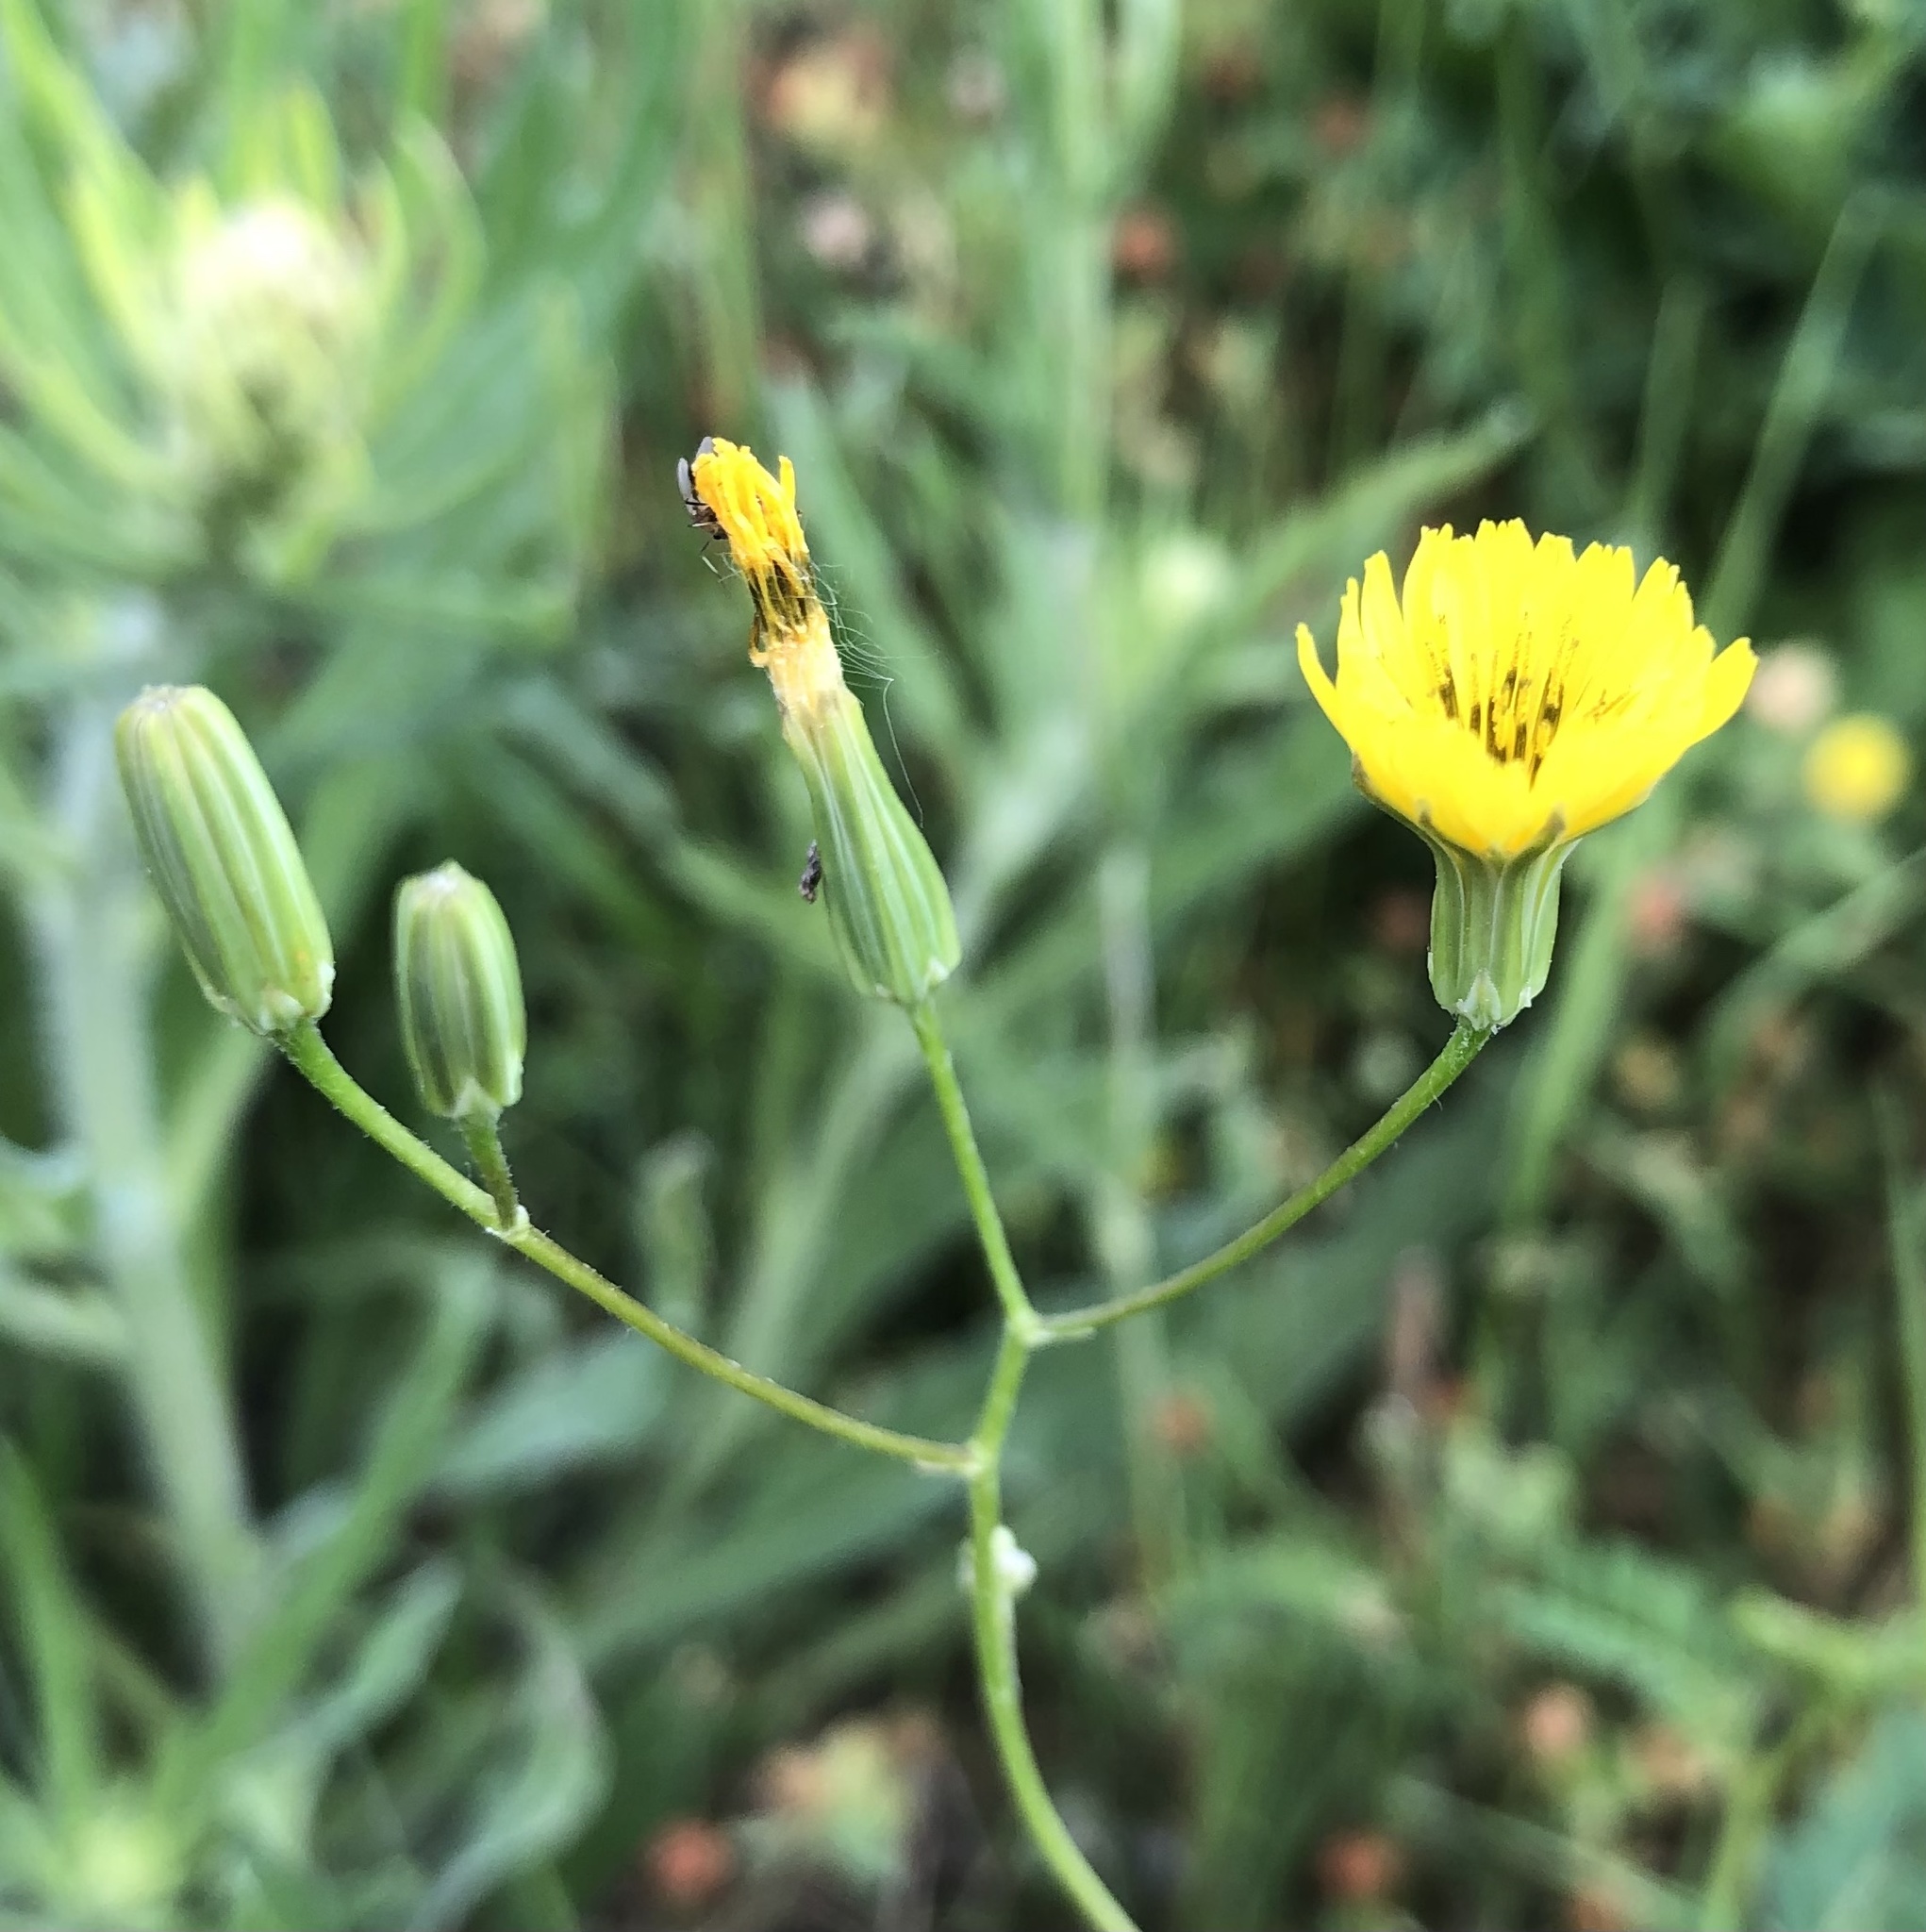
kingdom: Plantae
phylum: Tracheophyta
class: Magnoliopsida
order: Asterales
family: Asteraceae
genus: Crepis
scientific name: Crepis pulchra
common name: Hawk's-beard
